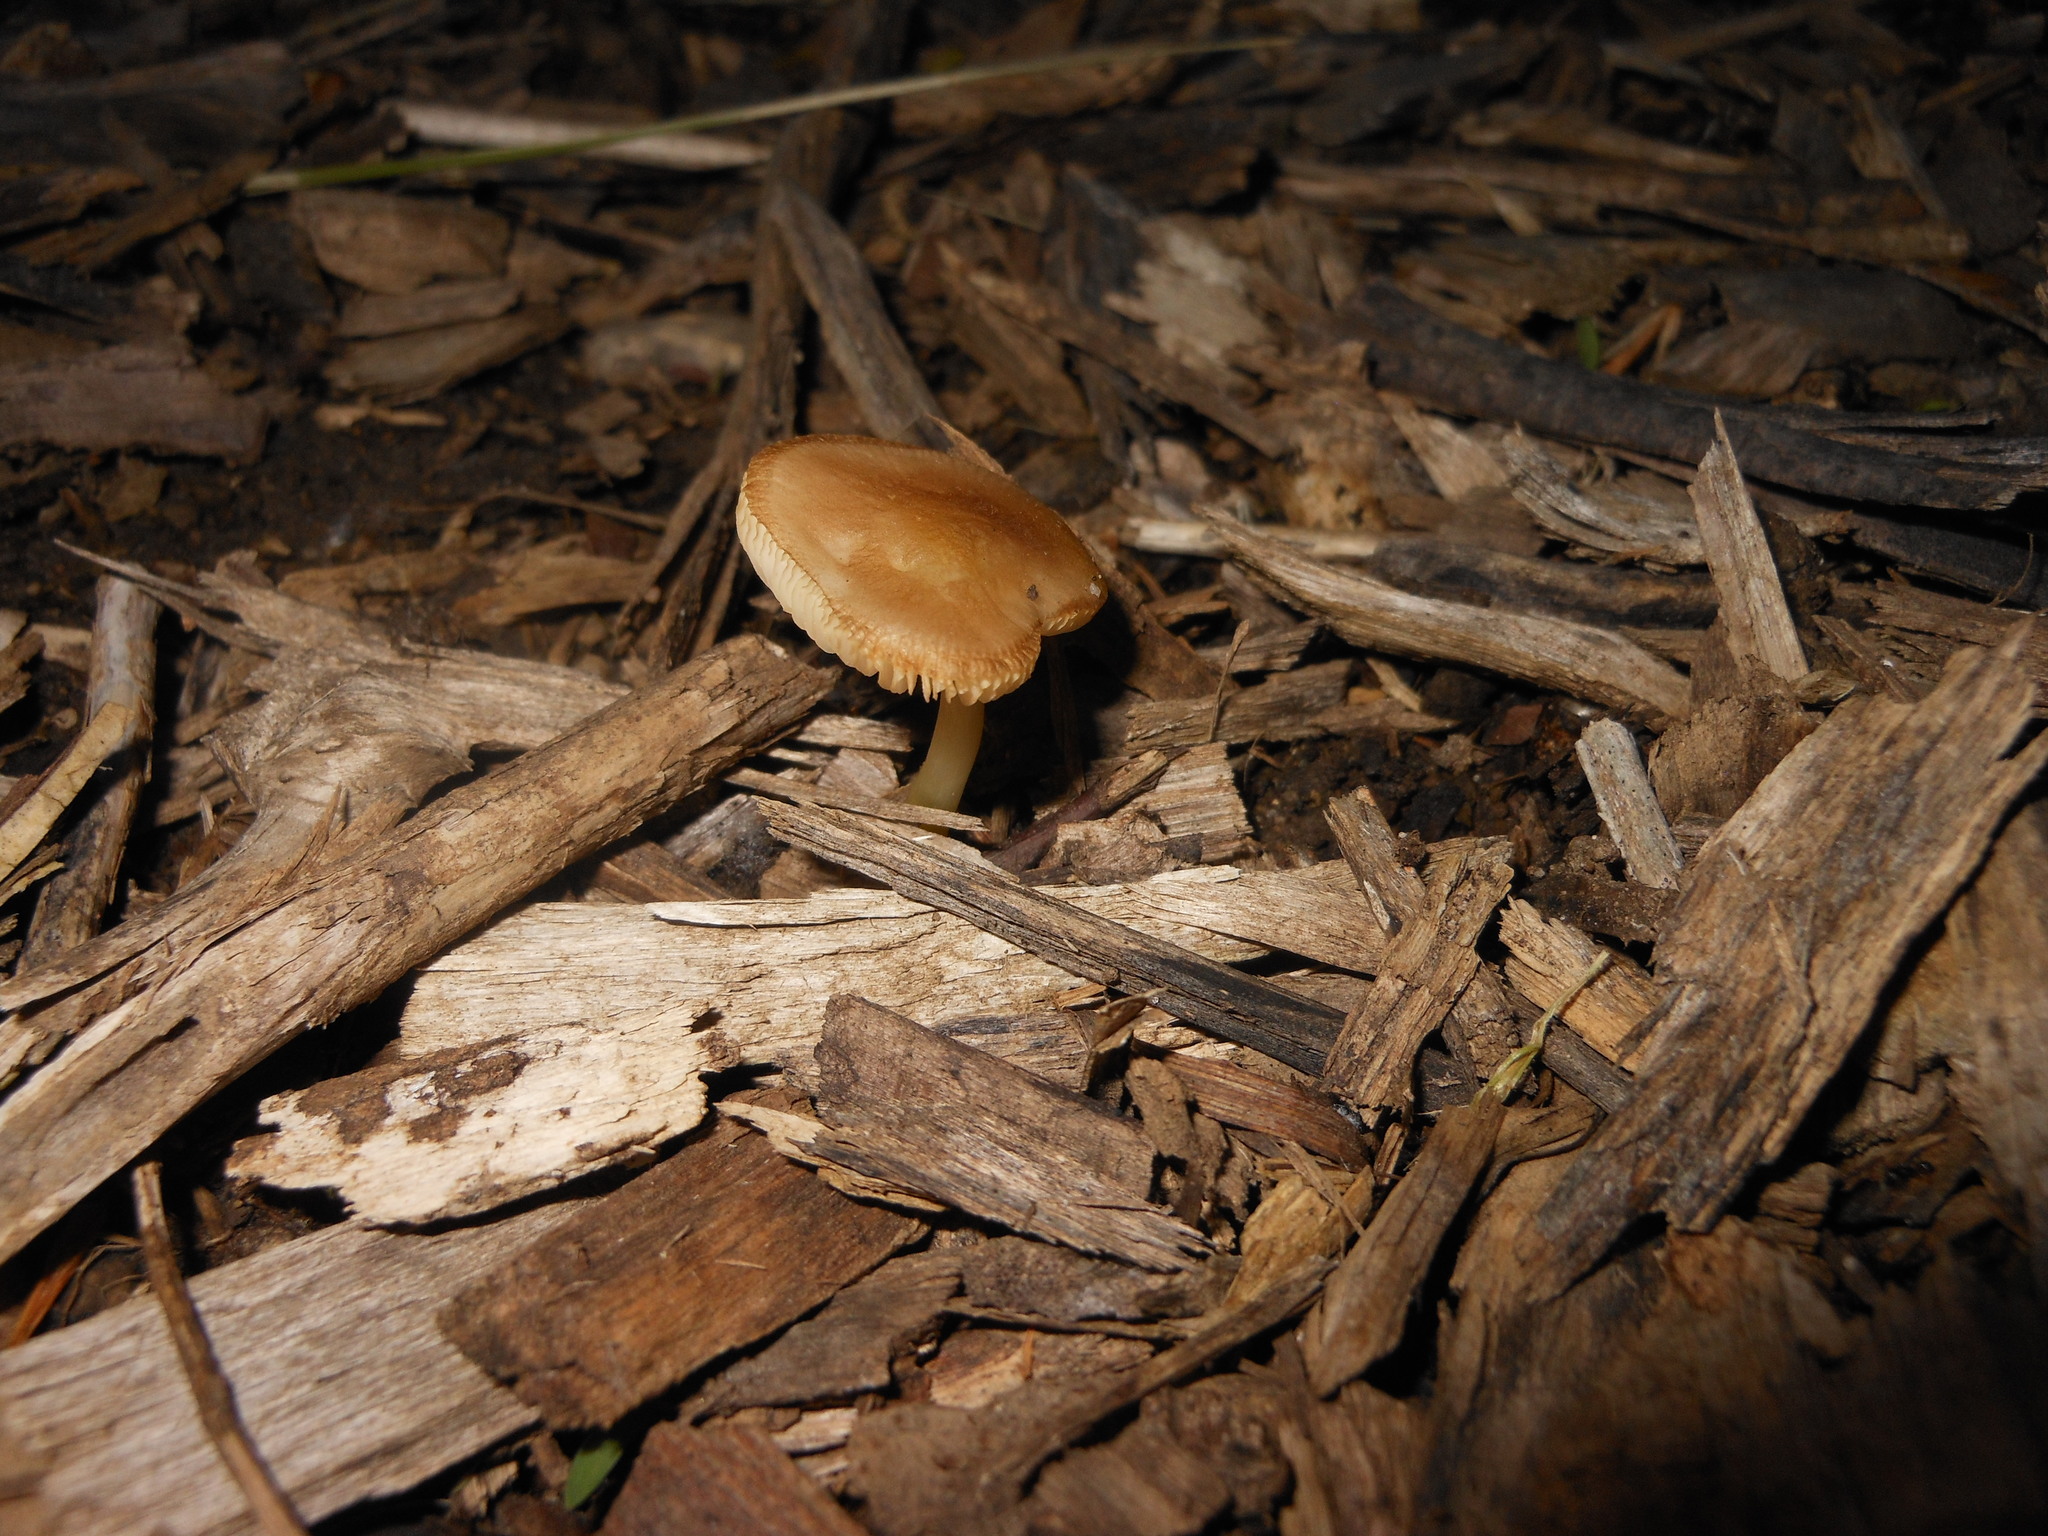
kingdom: Fungi
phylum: Basidiomycota
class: Agaricomycetes
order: Agaricales
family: Pluteaceae
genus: Pluteus
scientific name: Pluteus romellii
